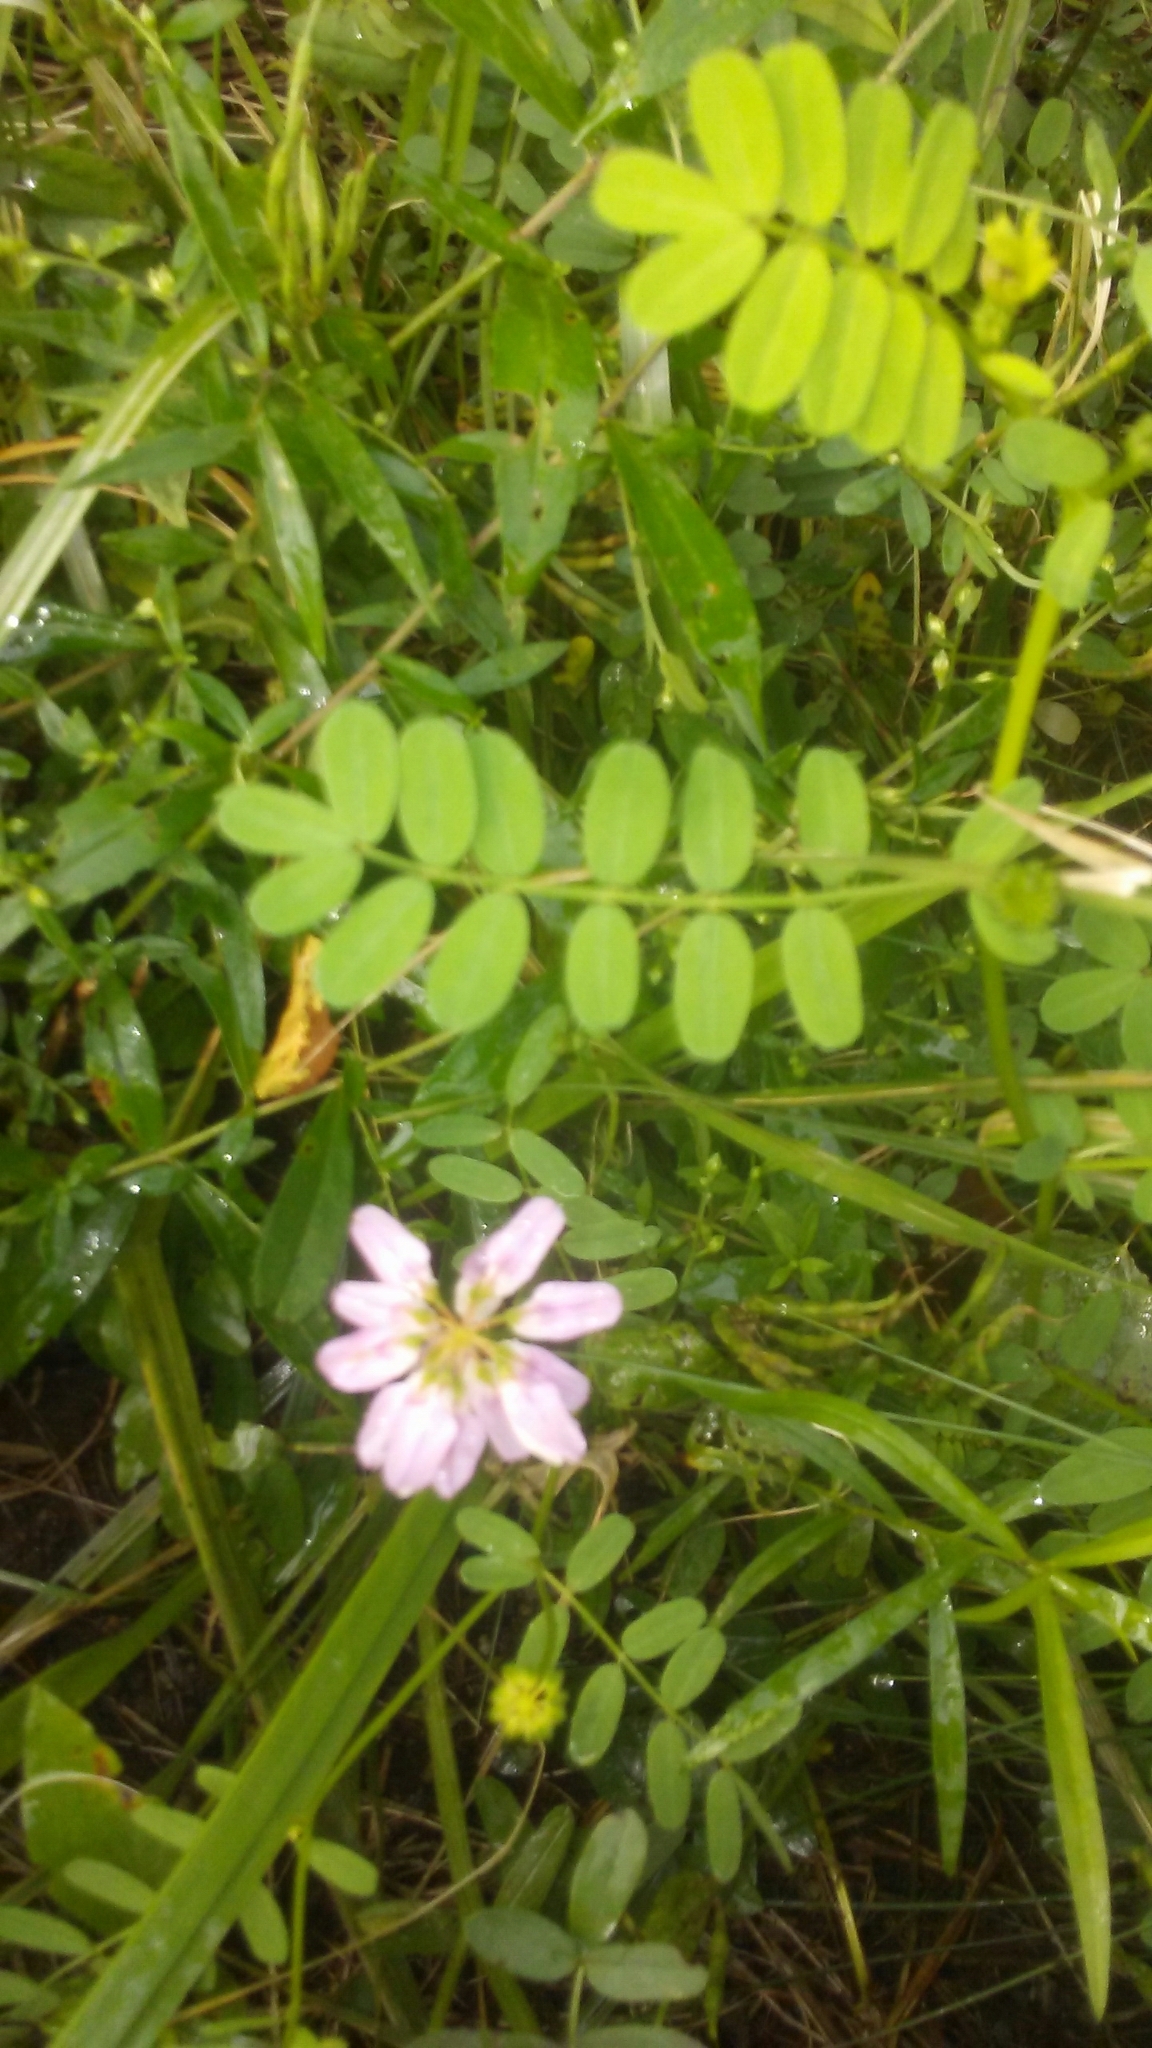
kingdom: Plantae
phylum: Tracheophyta
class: Magnoliopsida
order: Fabales
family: Fabaceae
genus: Coronilla
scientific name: Coronilla varia
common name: Crownvetch
